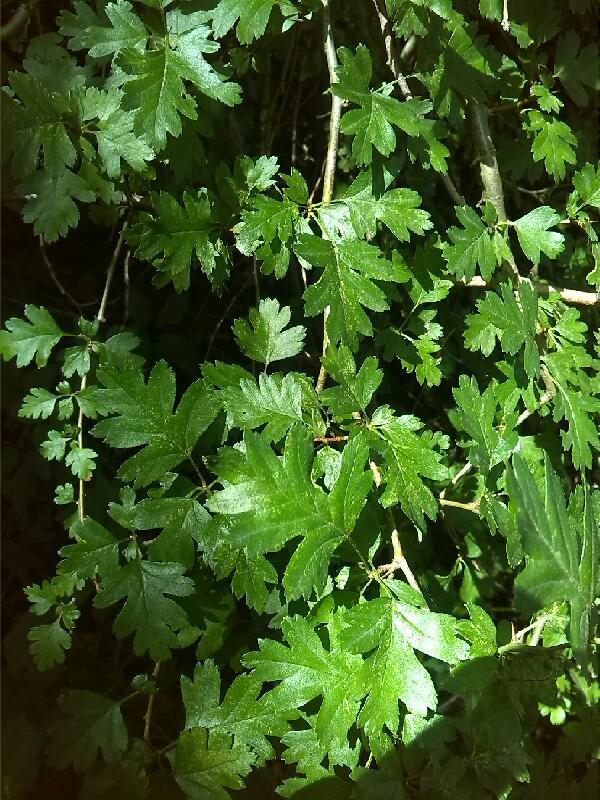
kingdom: Plantae
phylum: Tracheophyta
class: Magnoliopsida
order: Rosales
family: Rosaceae
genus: Crataegus
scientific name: Crataegus monogyna
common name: Hawthorn
